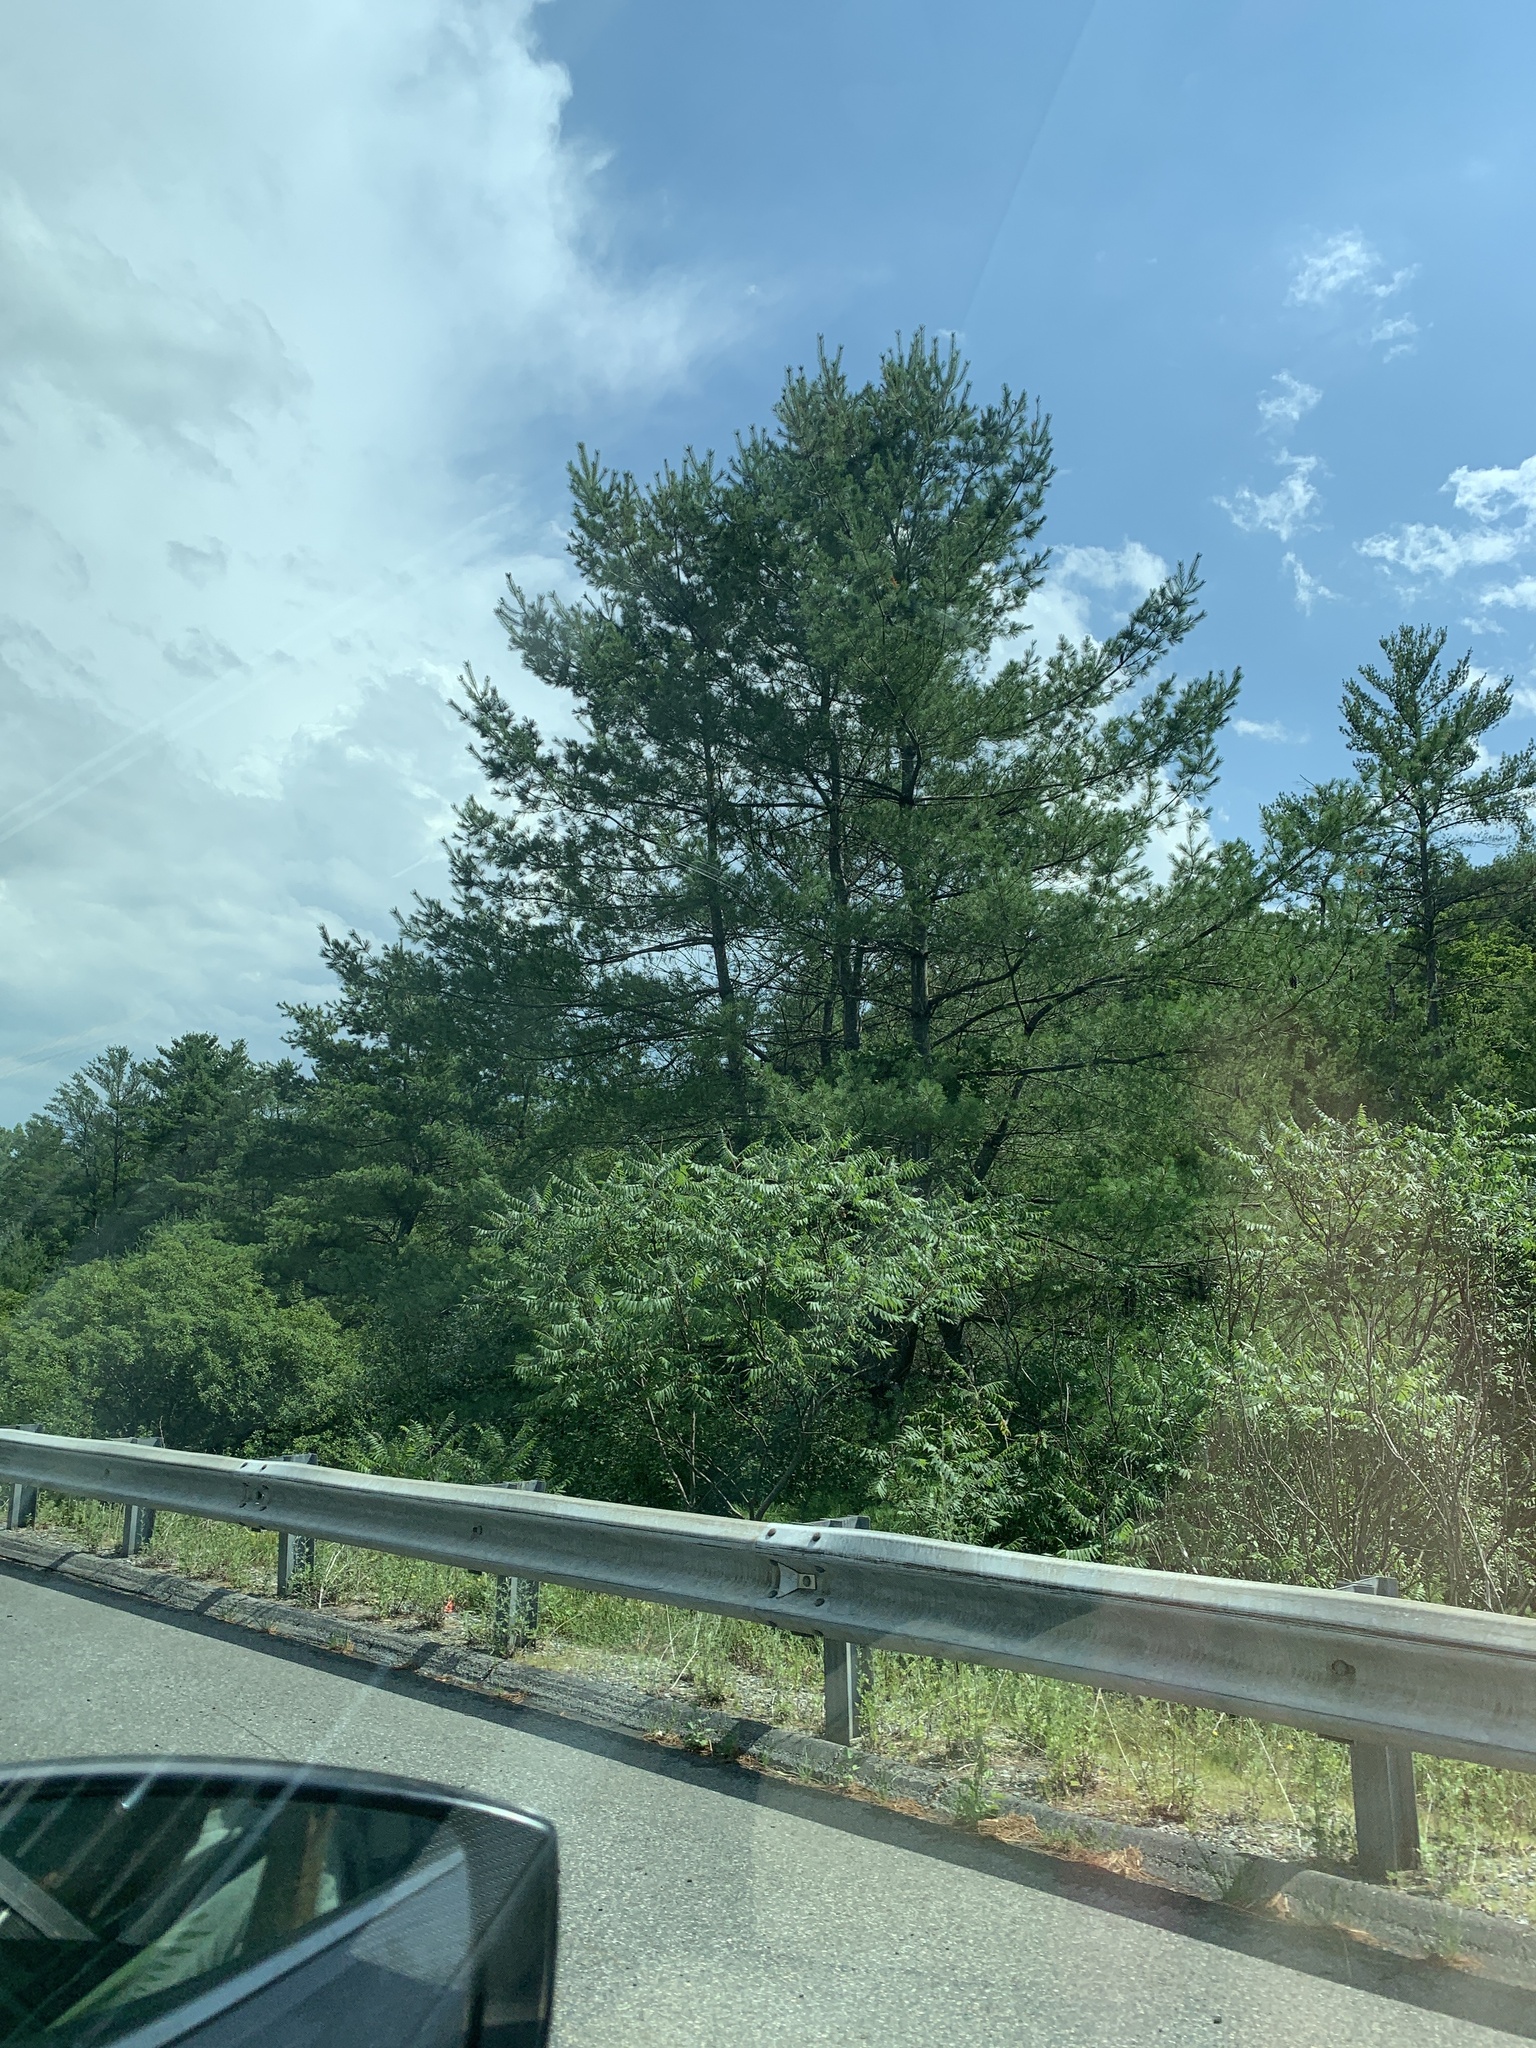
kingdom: Plantae
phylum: Tracheophyta
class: Pinopsida
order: Pinales
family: Pinaceae
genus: Pinus
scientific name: Pinus strobus
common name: Weymouth pine
